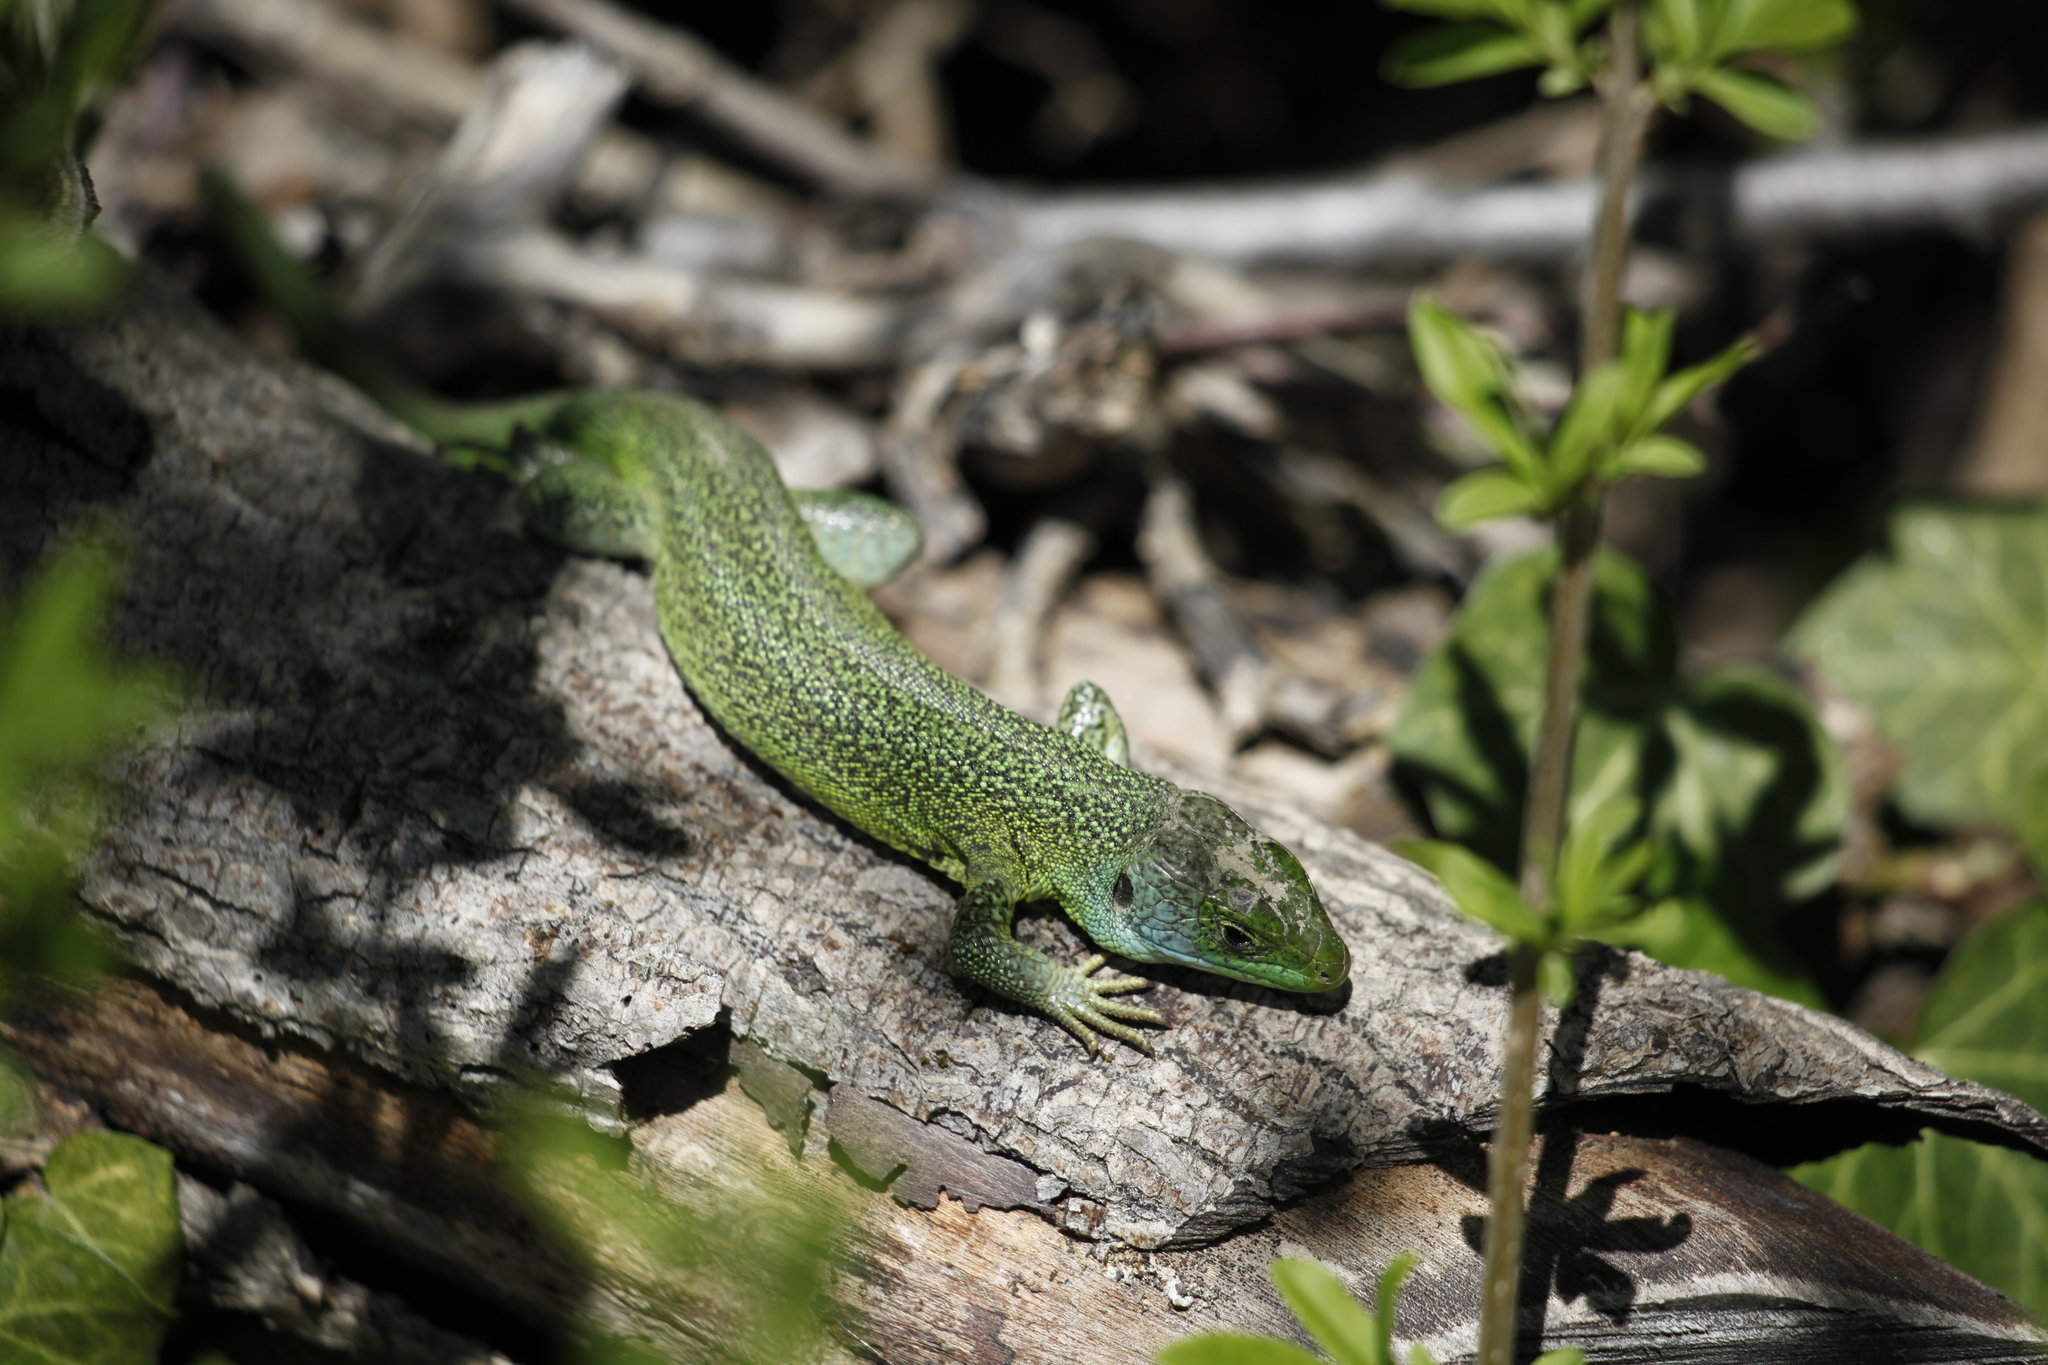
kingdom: Animalia
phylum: Chordata
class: Squamata
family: Lacertidae
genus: Lacerta
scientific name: Lacerta bilineata
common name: Western green lizard
